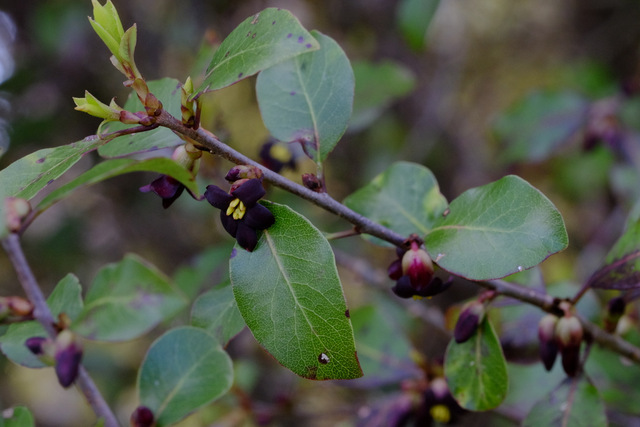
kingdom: Plantae
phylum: Tracheophyta
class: Magnoliopsida
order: Apiales
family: Pittosporaceae
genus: Pittosporum
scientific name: Pittosporum tenuifolium
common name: Kohuhu
